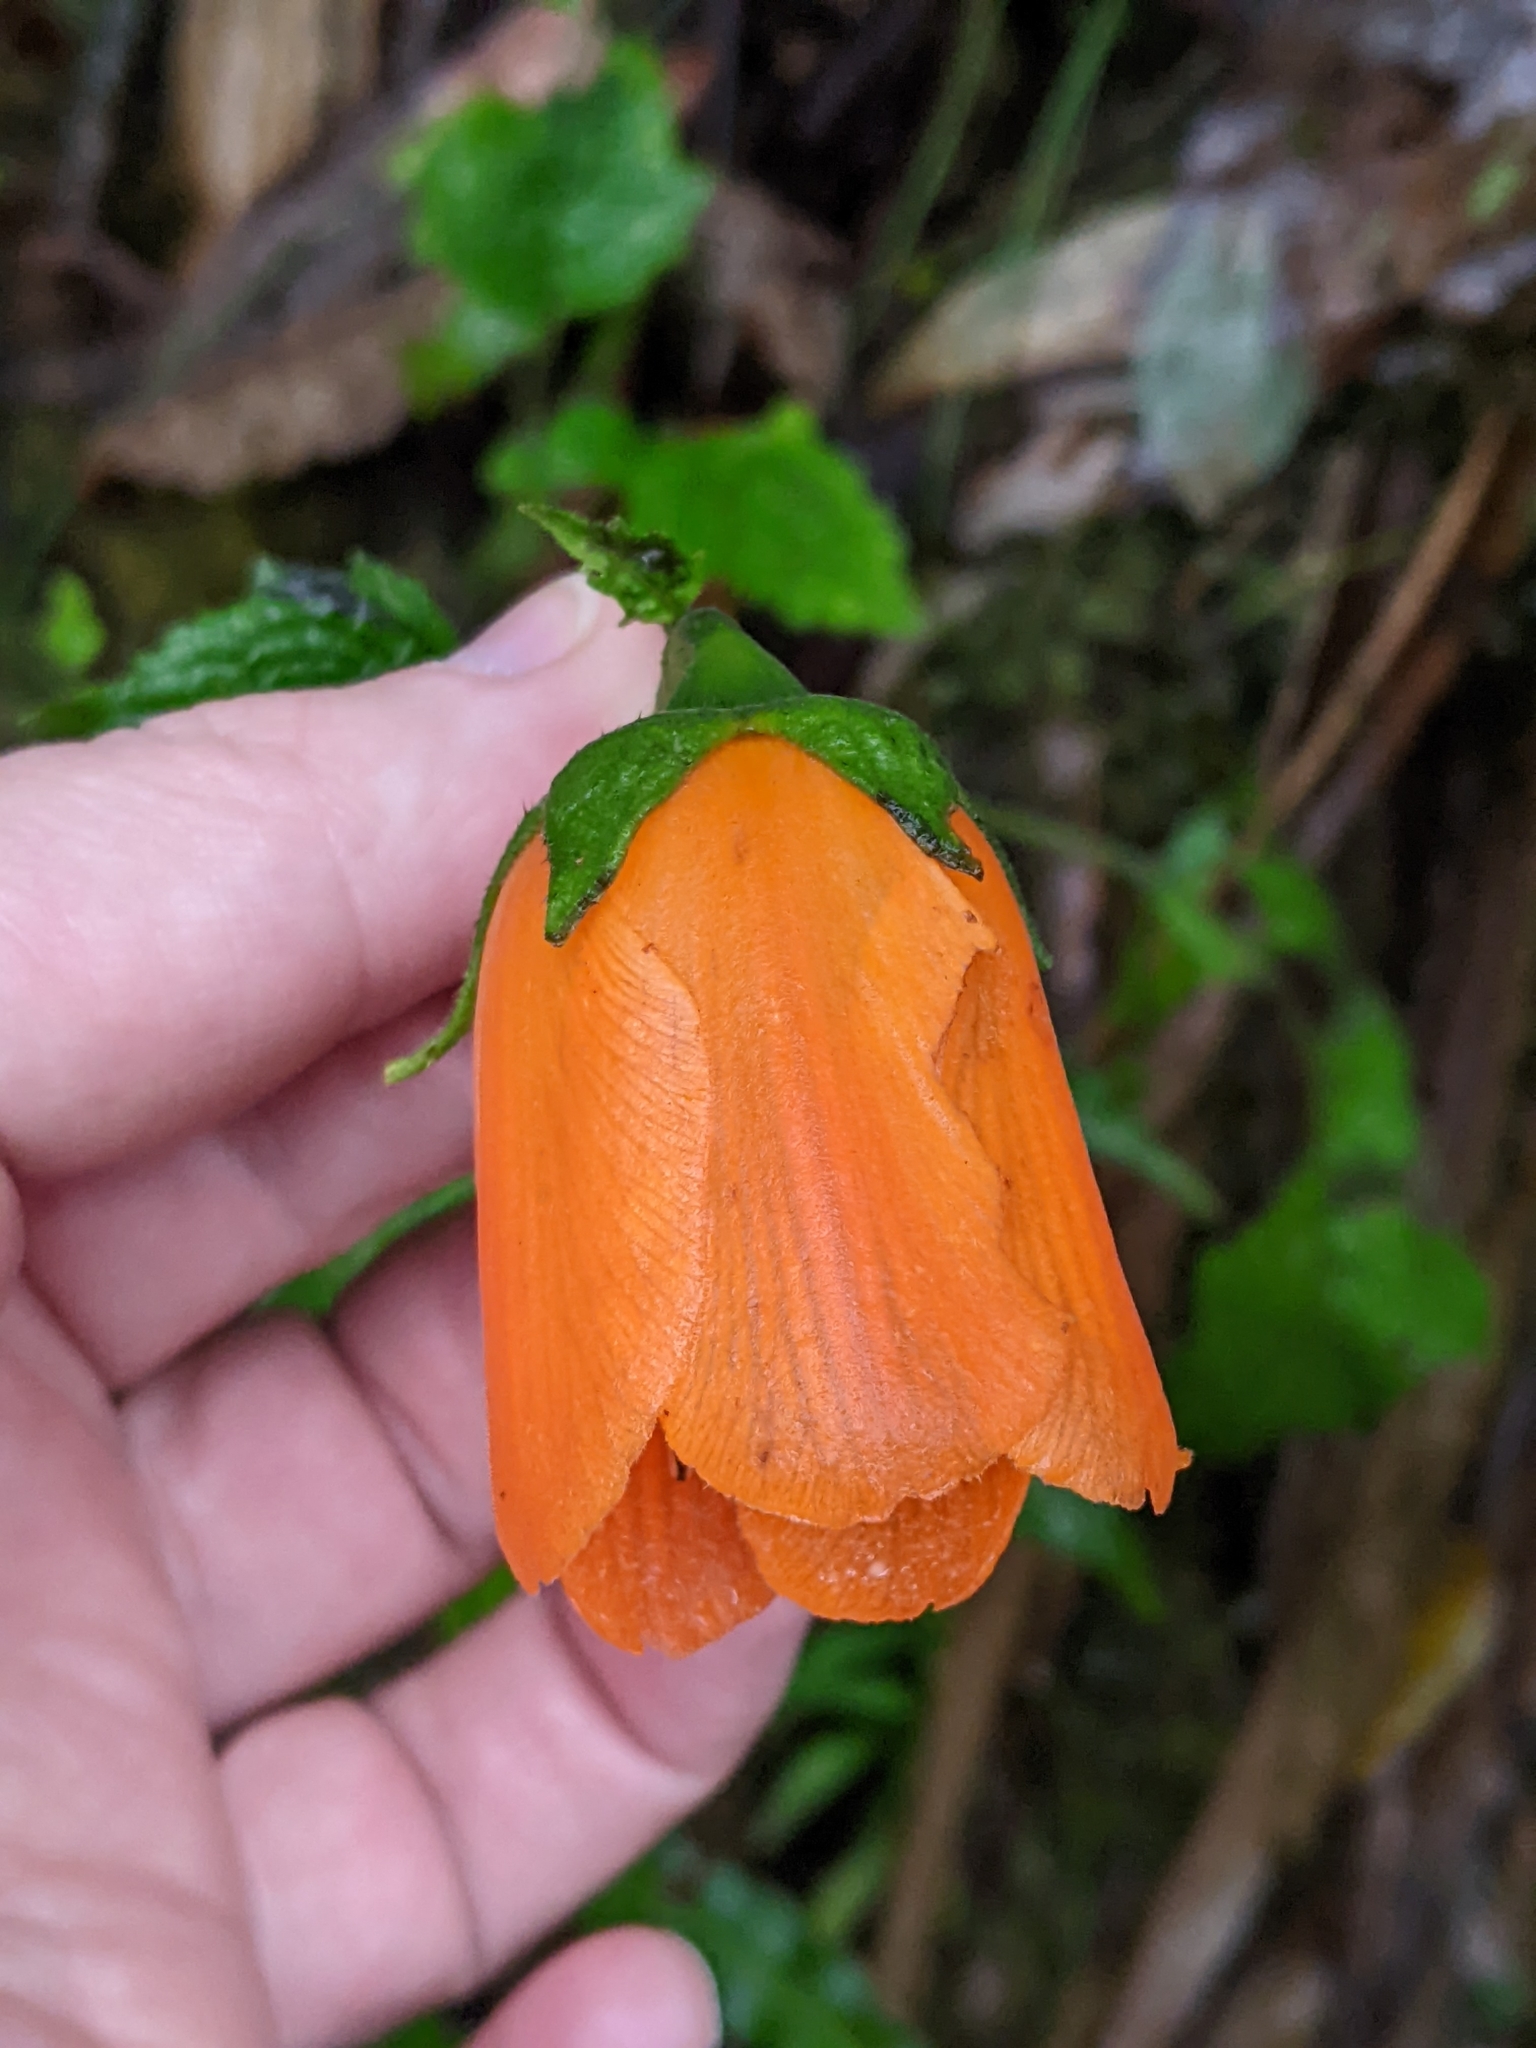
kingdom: Plantae
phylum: Tracheophyta
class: Magnoliopsida
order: Cornales
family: Loasaceae
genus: Nasa
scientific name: Nasa grandiflora
